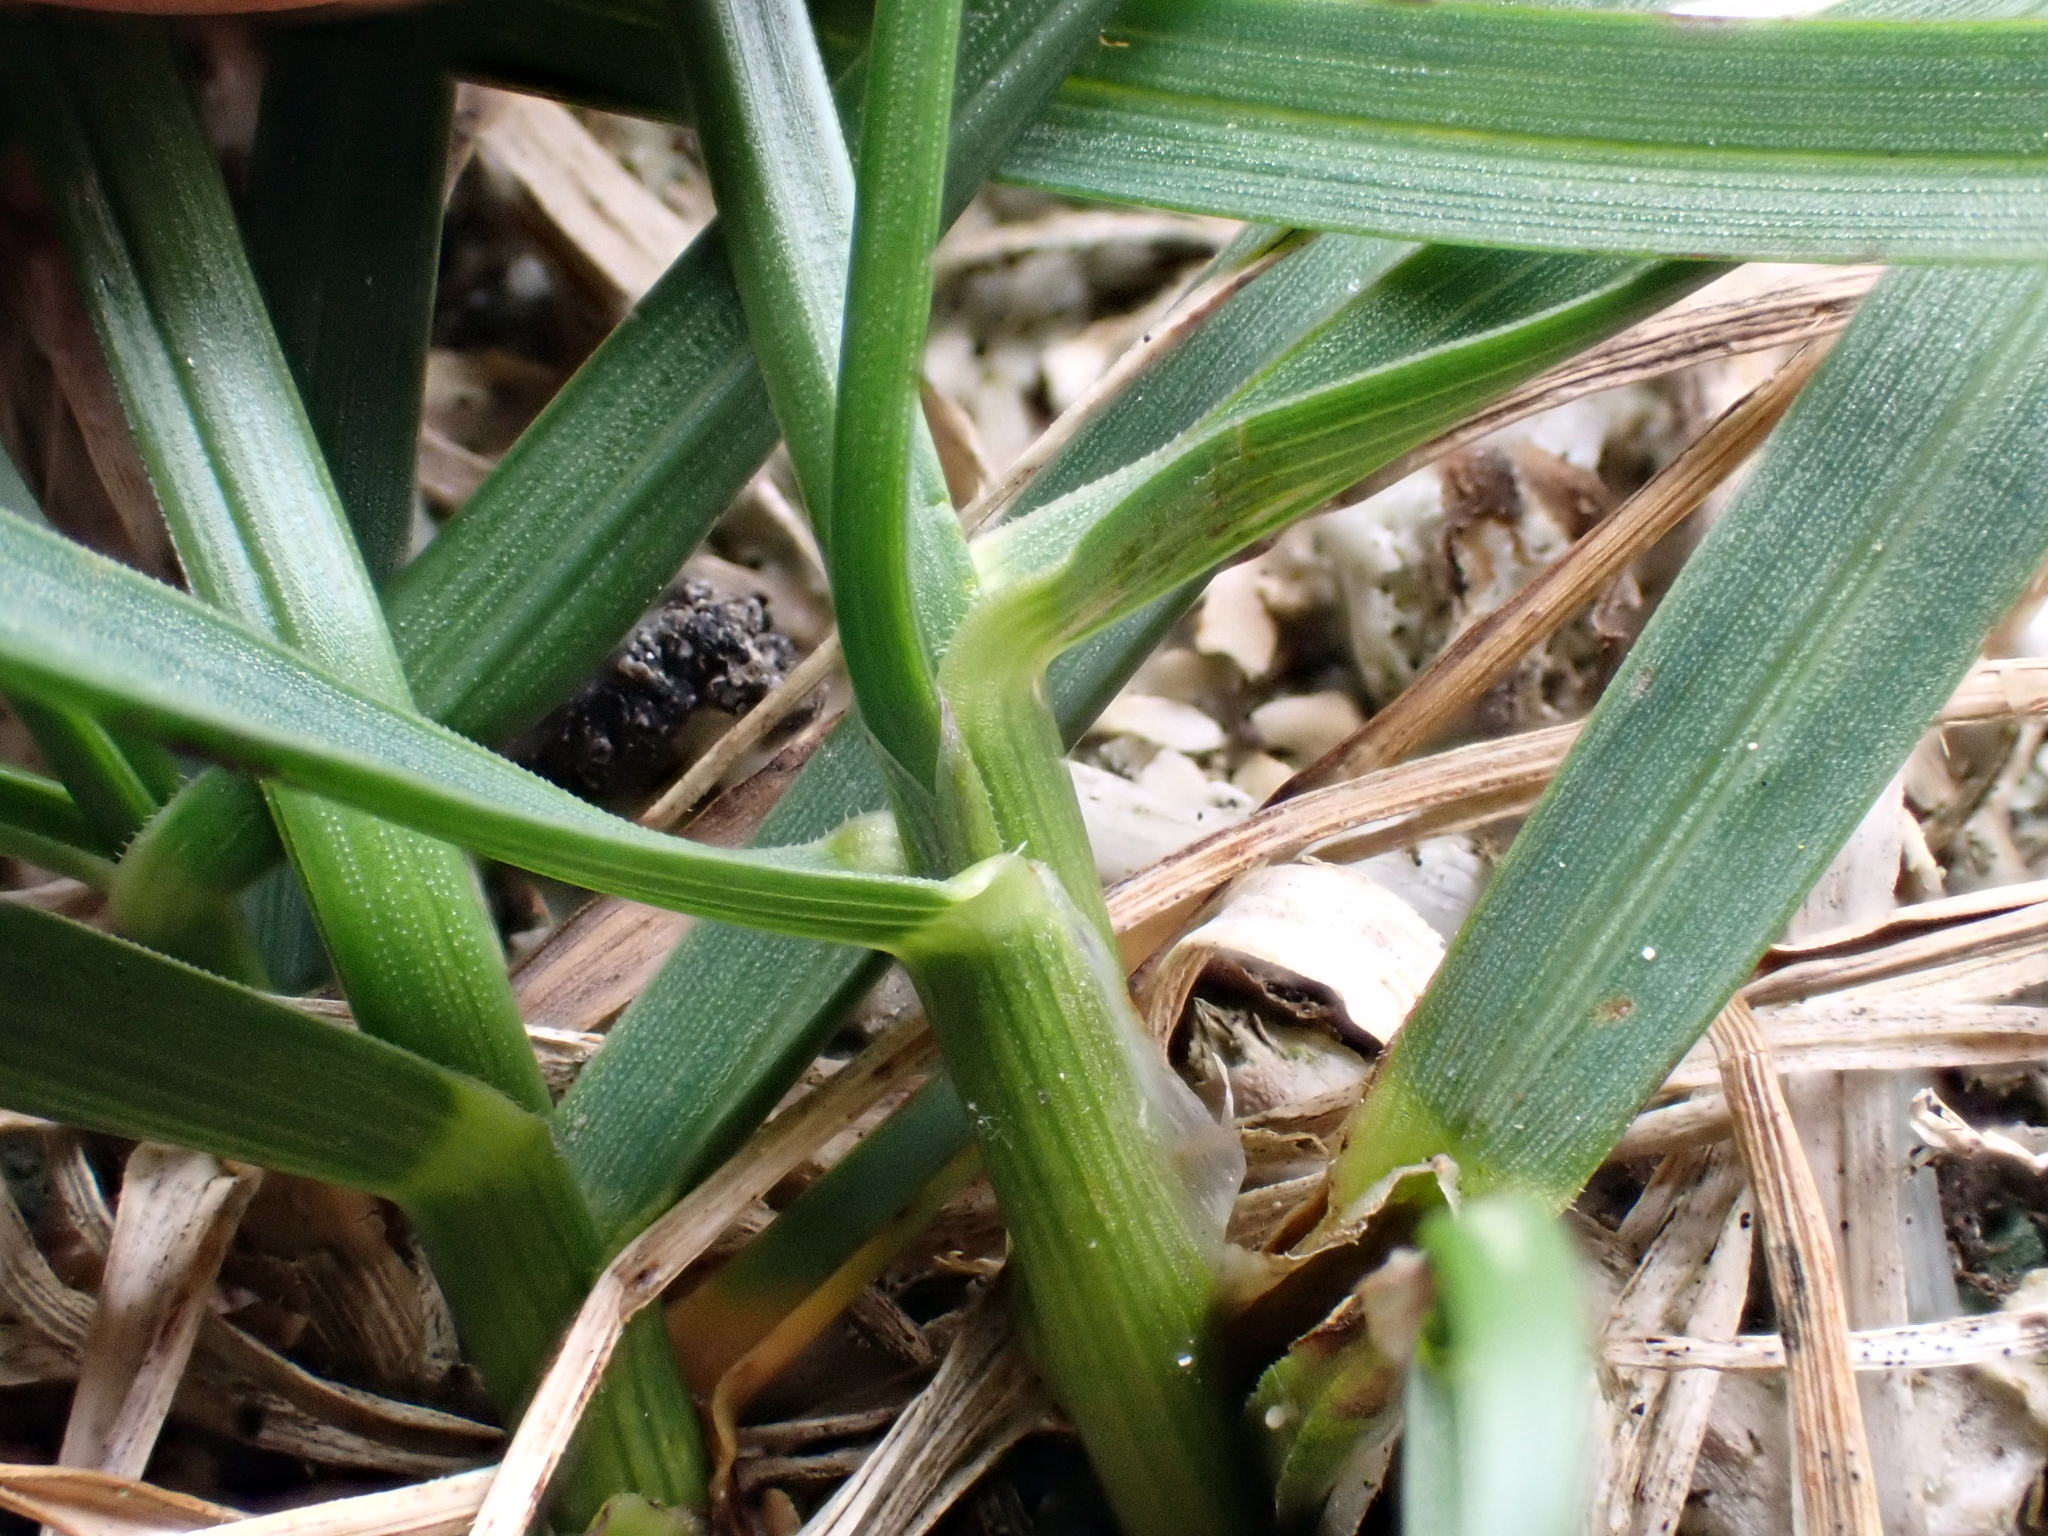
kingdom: Plantae
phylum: Tracheophyta
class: Liliopsida
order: Poales
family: Poaceae
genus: Poa
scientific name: Poa pratensis
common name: Kentucky bluegrass
